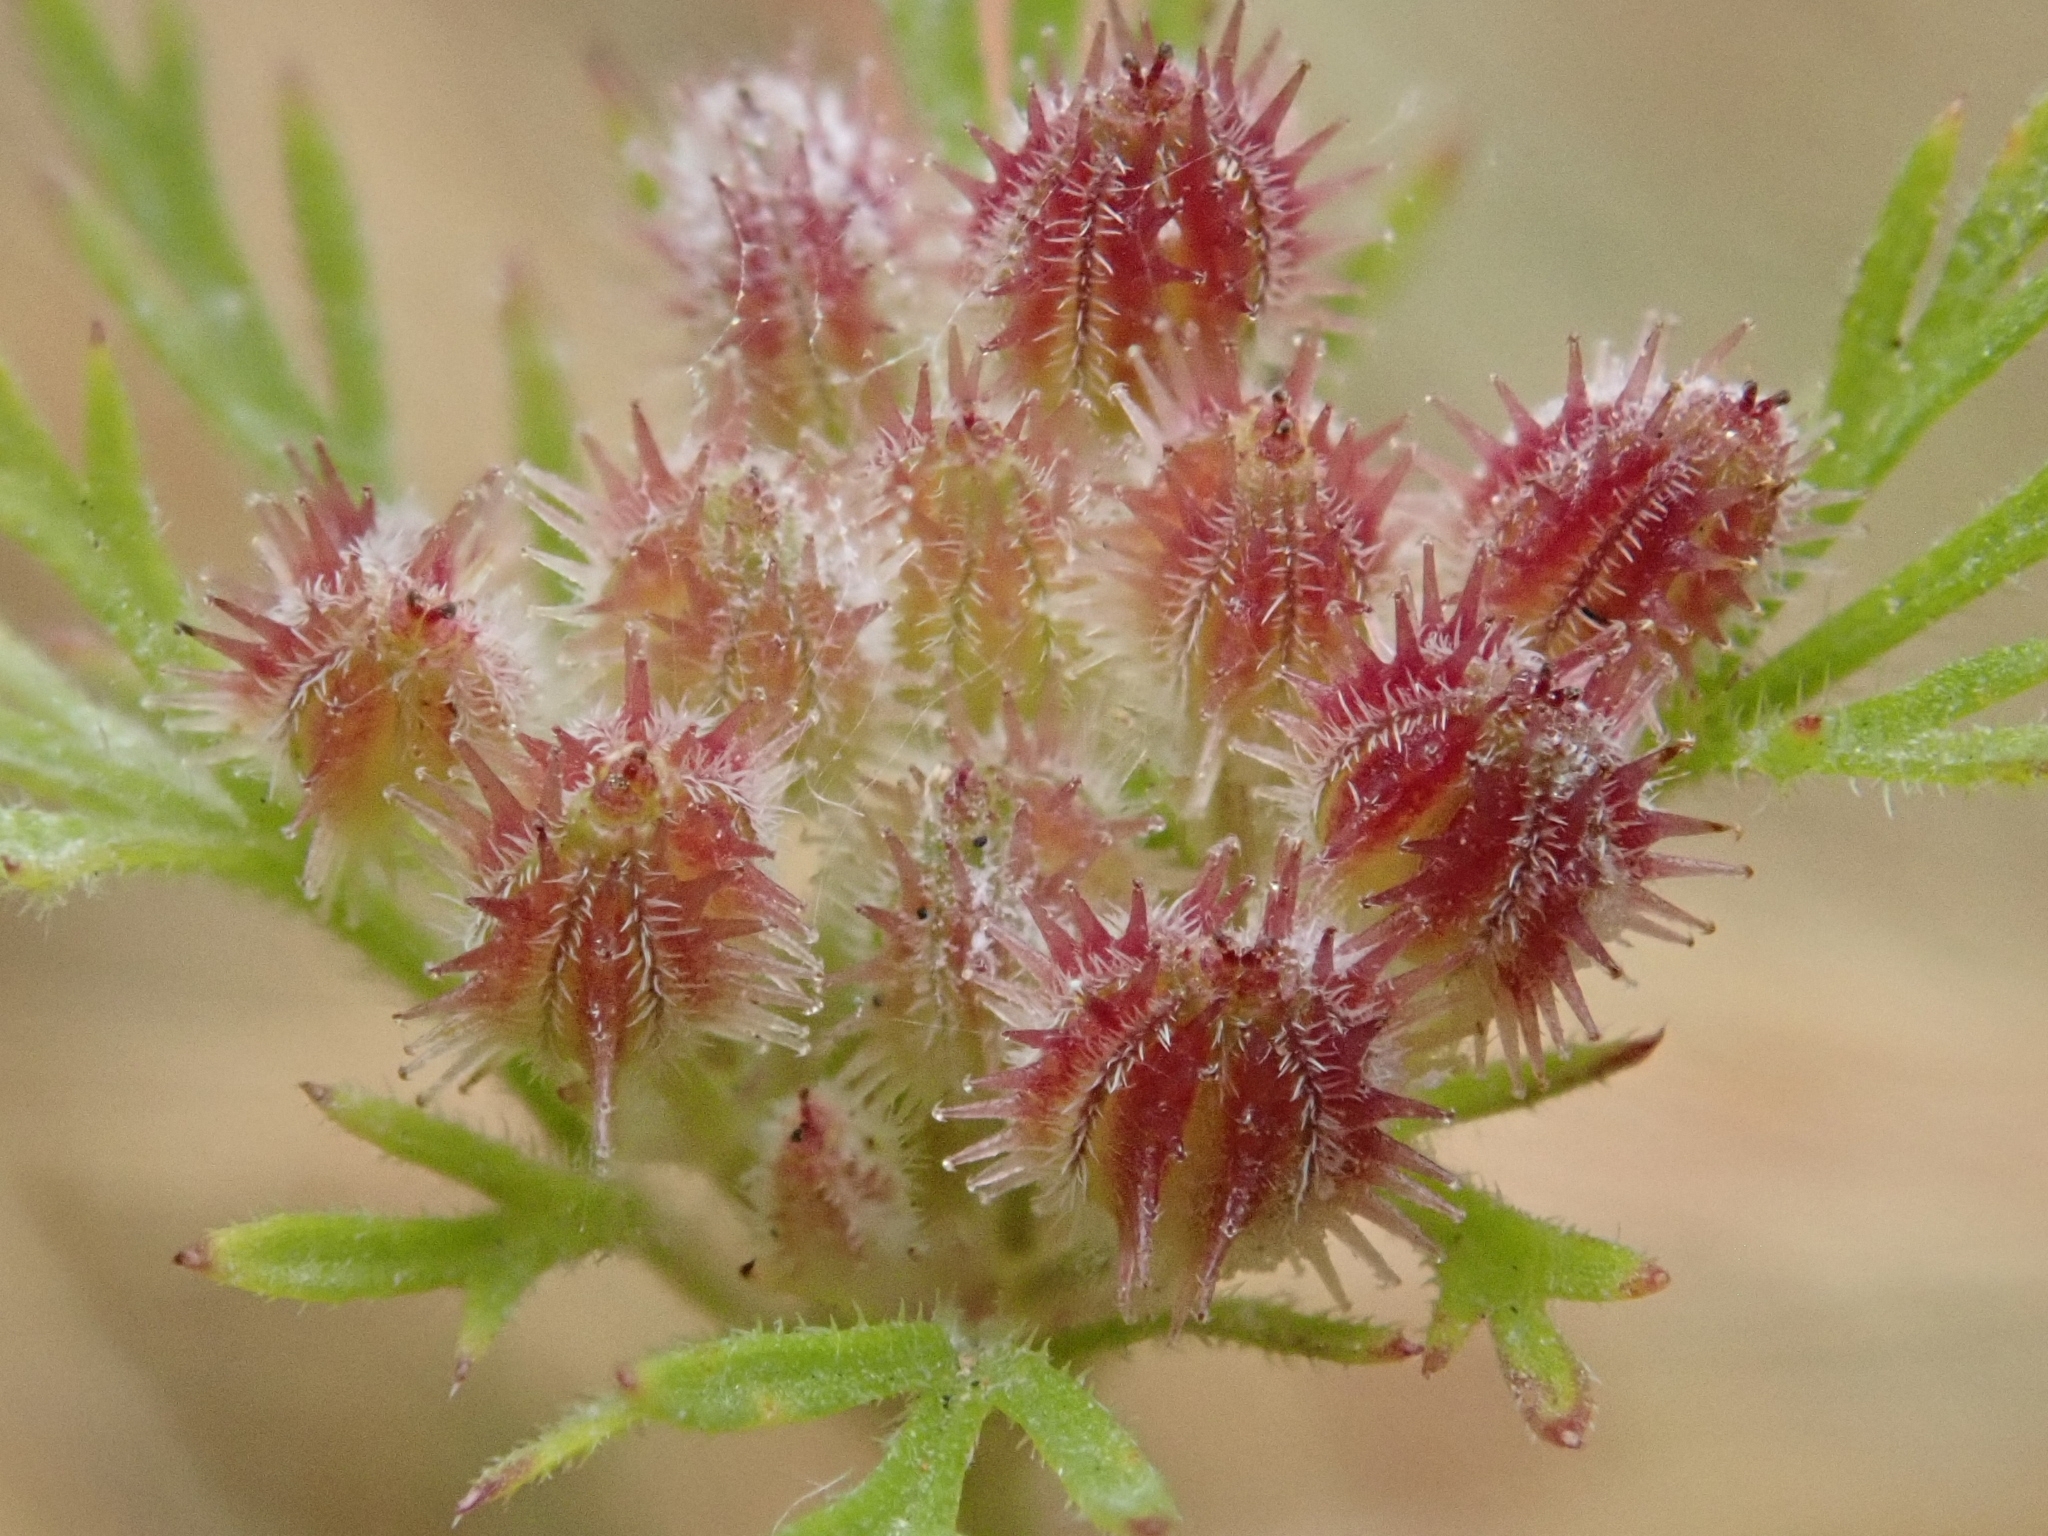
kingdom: Plantae
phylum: Tracheophyta
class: Magnoliopsida
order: Apiales
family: Apiaceae
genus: Daucus
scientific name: Daucus pusillus
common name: Southwest wild carrot
